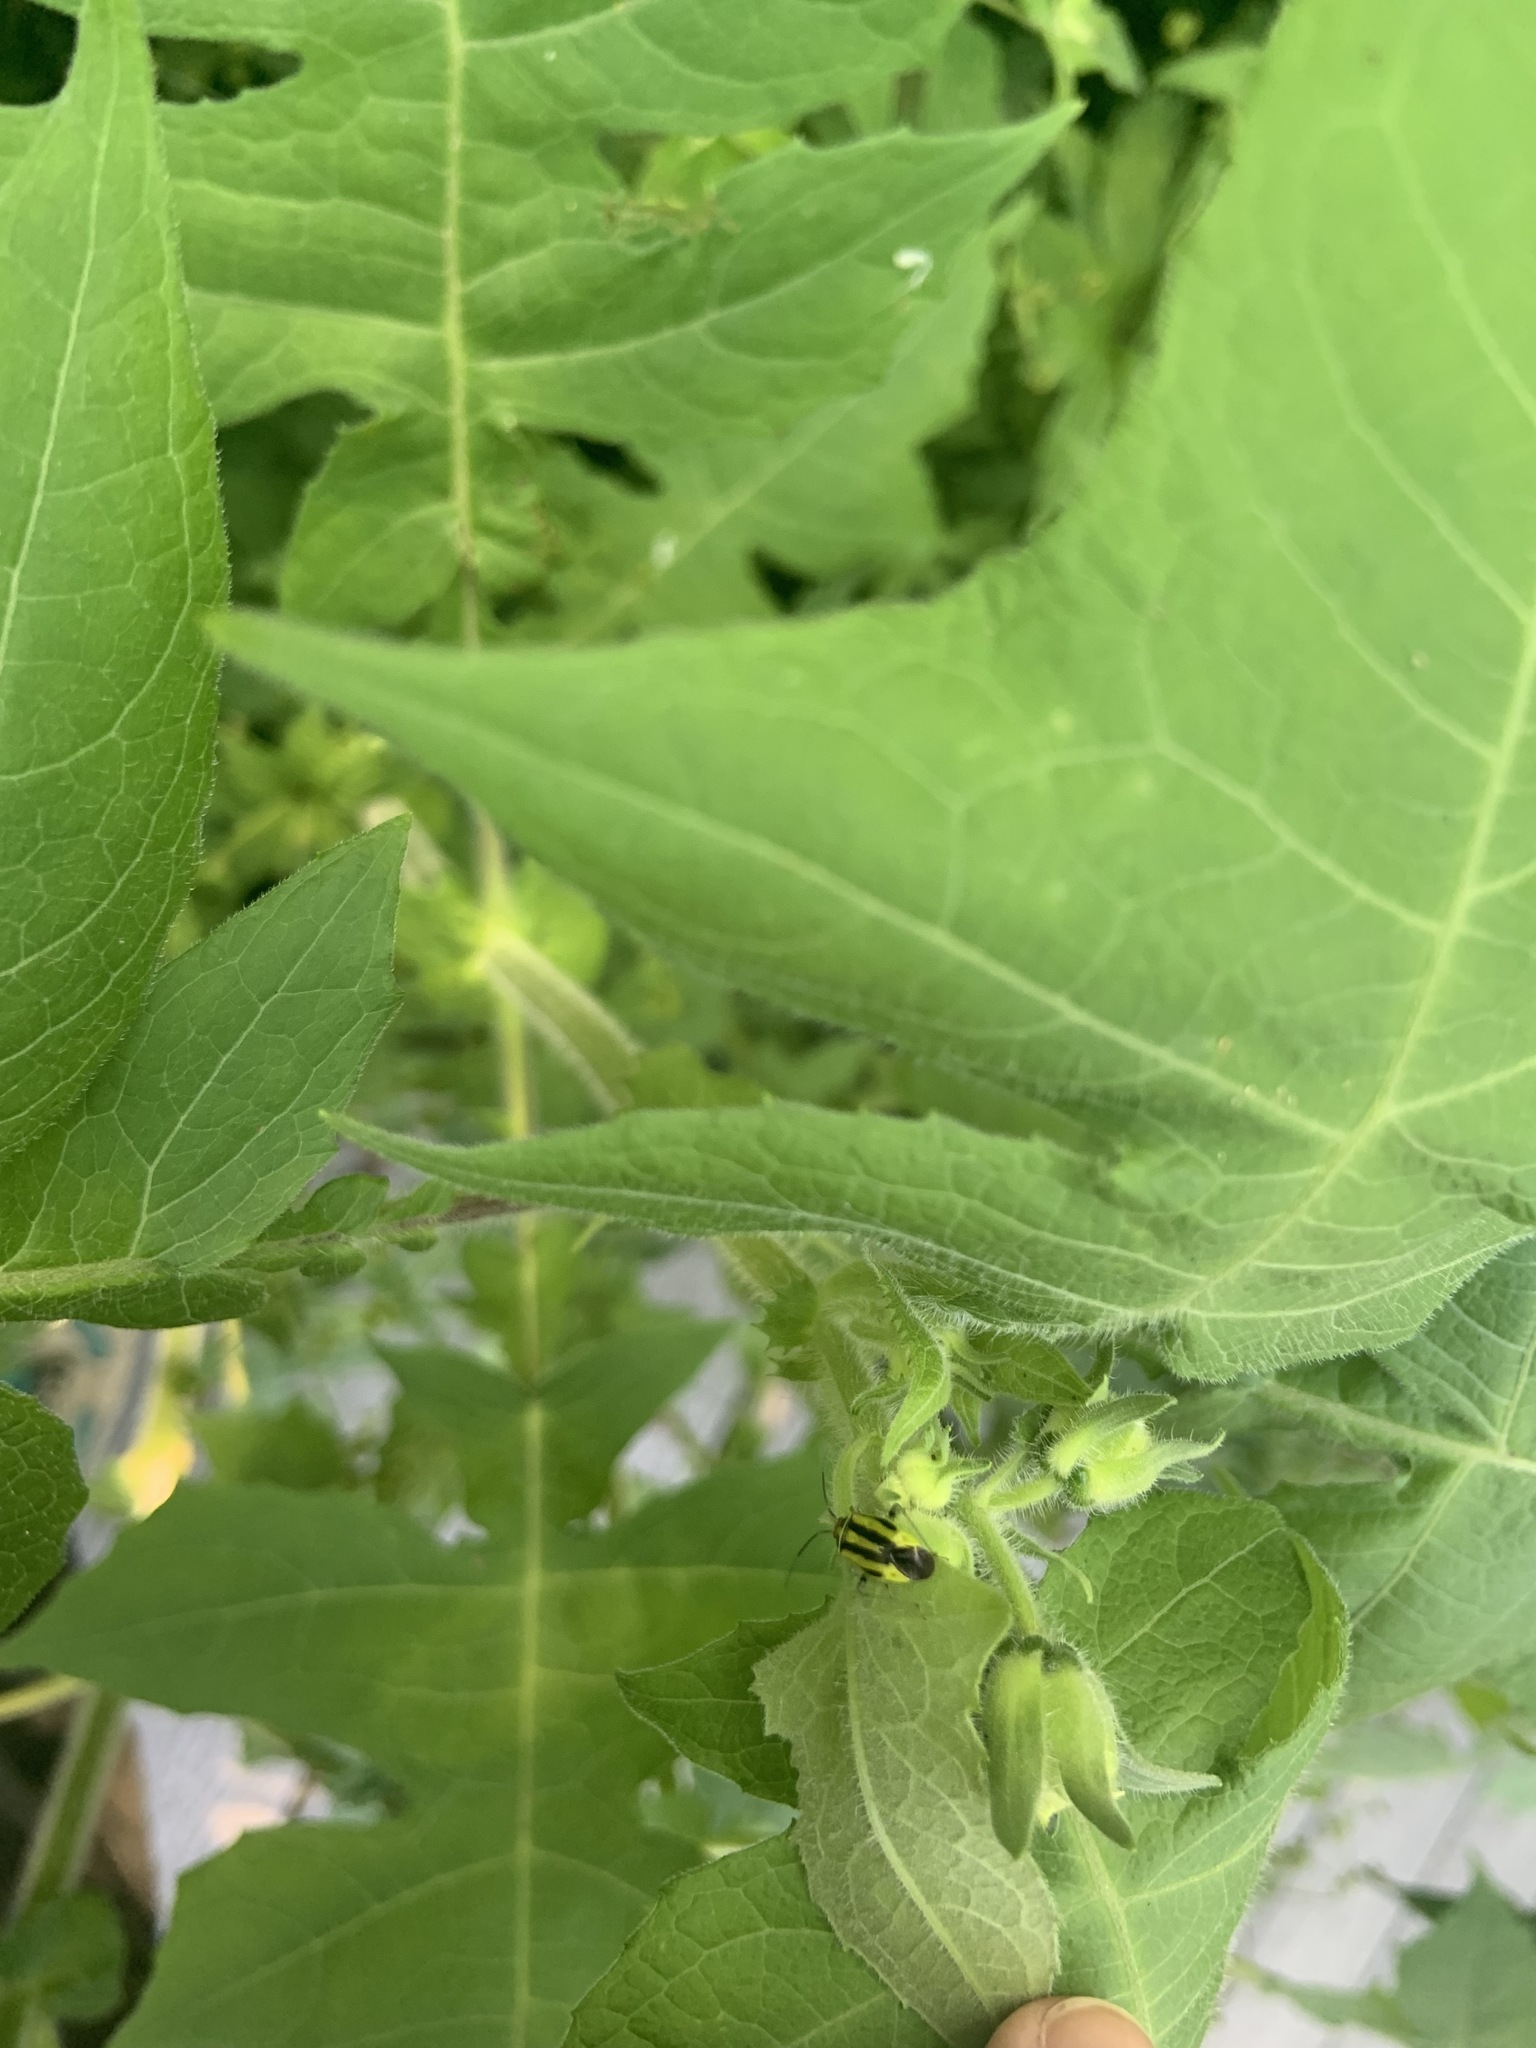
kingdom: Animalia
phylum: Arthropoda
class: Insecta
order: Hemiptera
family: Miridae
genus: Poecilocapsus
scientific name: Poecilocapsus lineatus
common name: Four-lined plant bug
